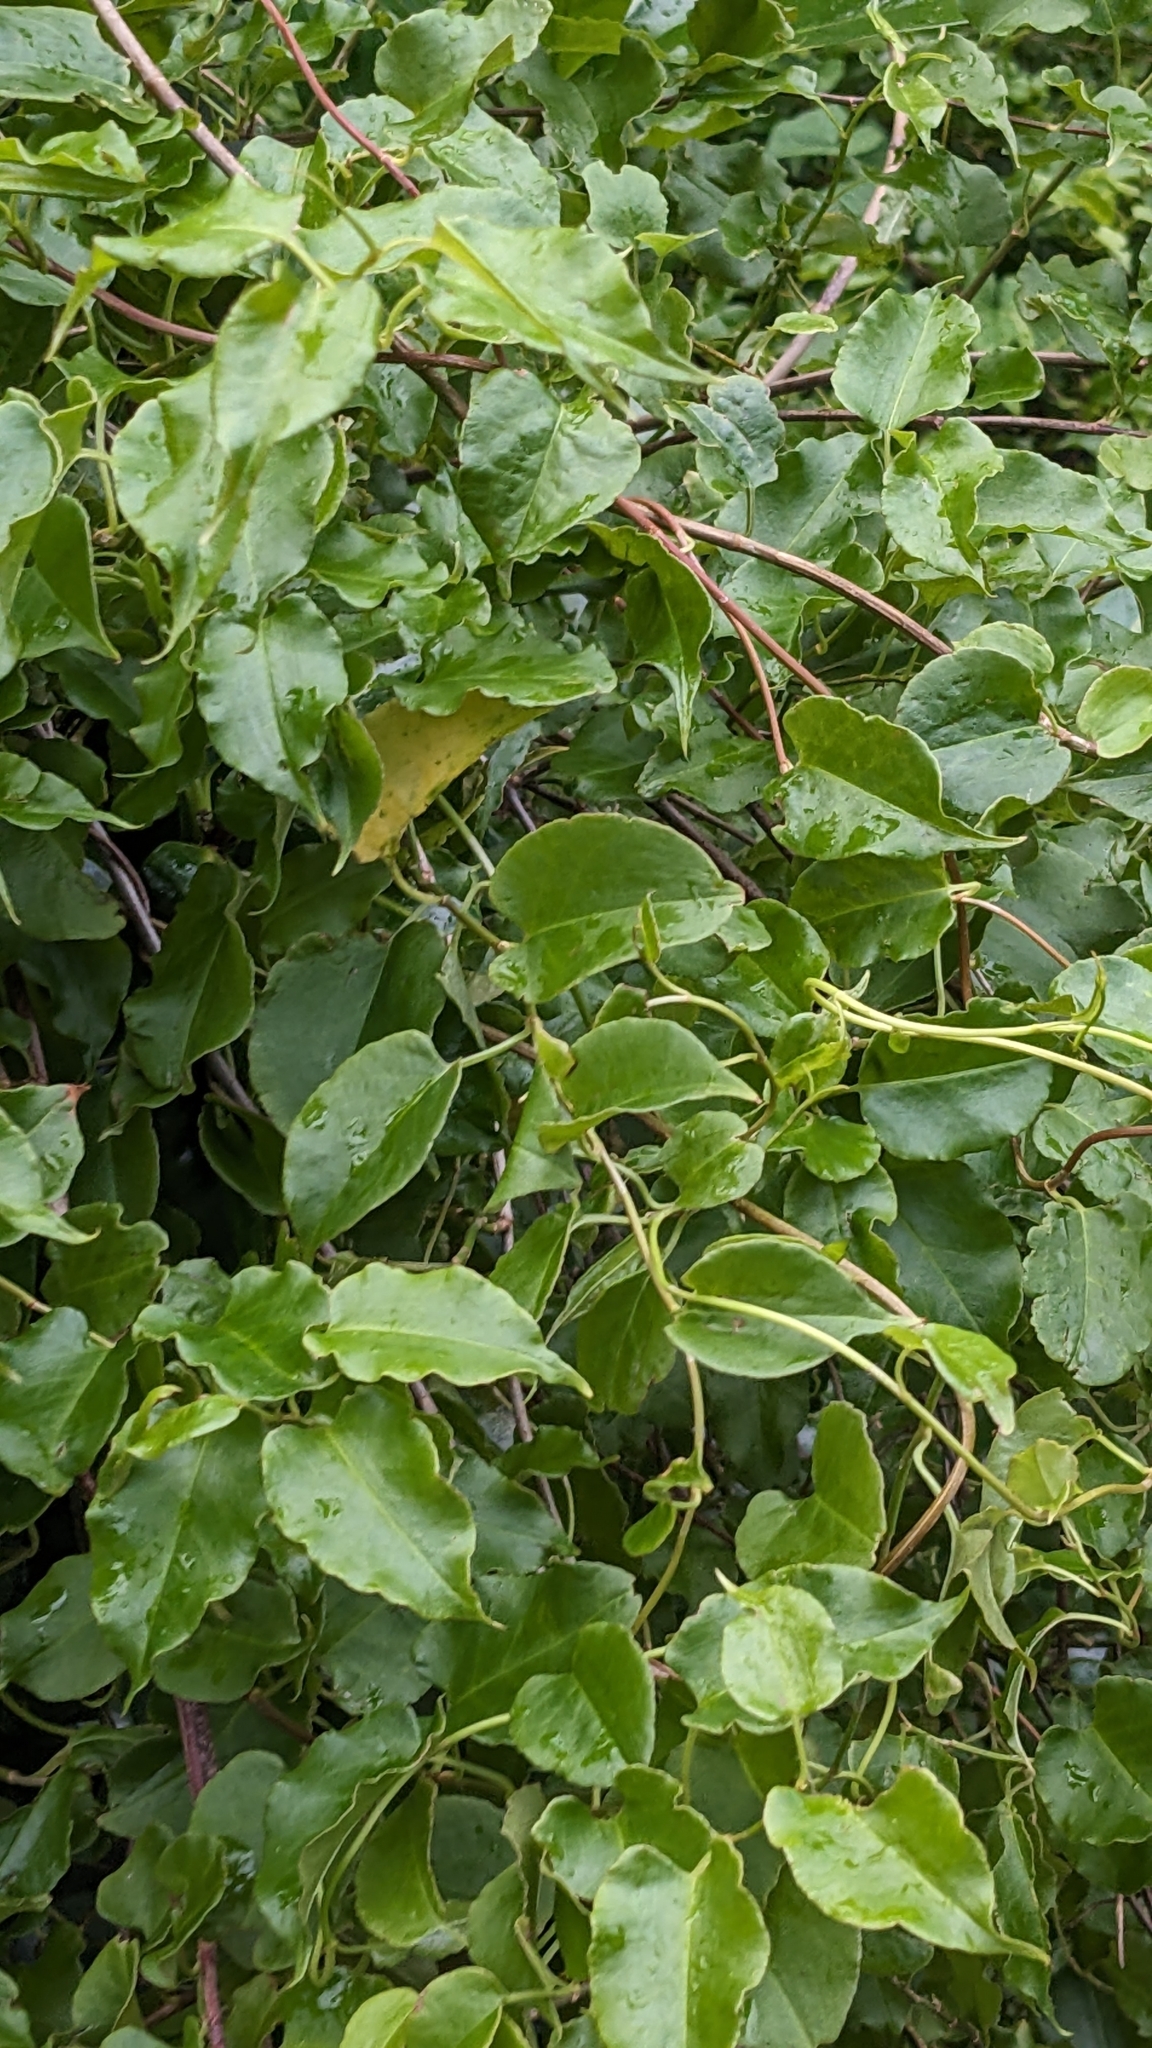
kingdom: Plantae
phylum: Tracheophyta
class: Magnoliopsida
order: Caryophyllales
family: Polygonaceae
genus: Muehlenbeckia
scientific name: Muehlenbeckia australis
